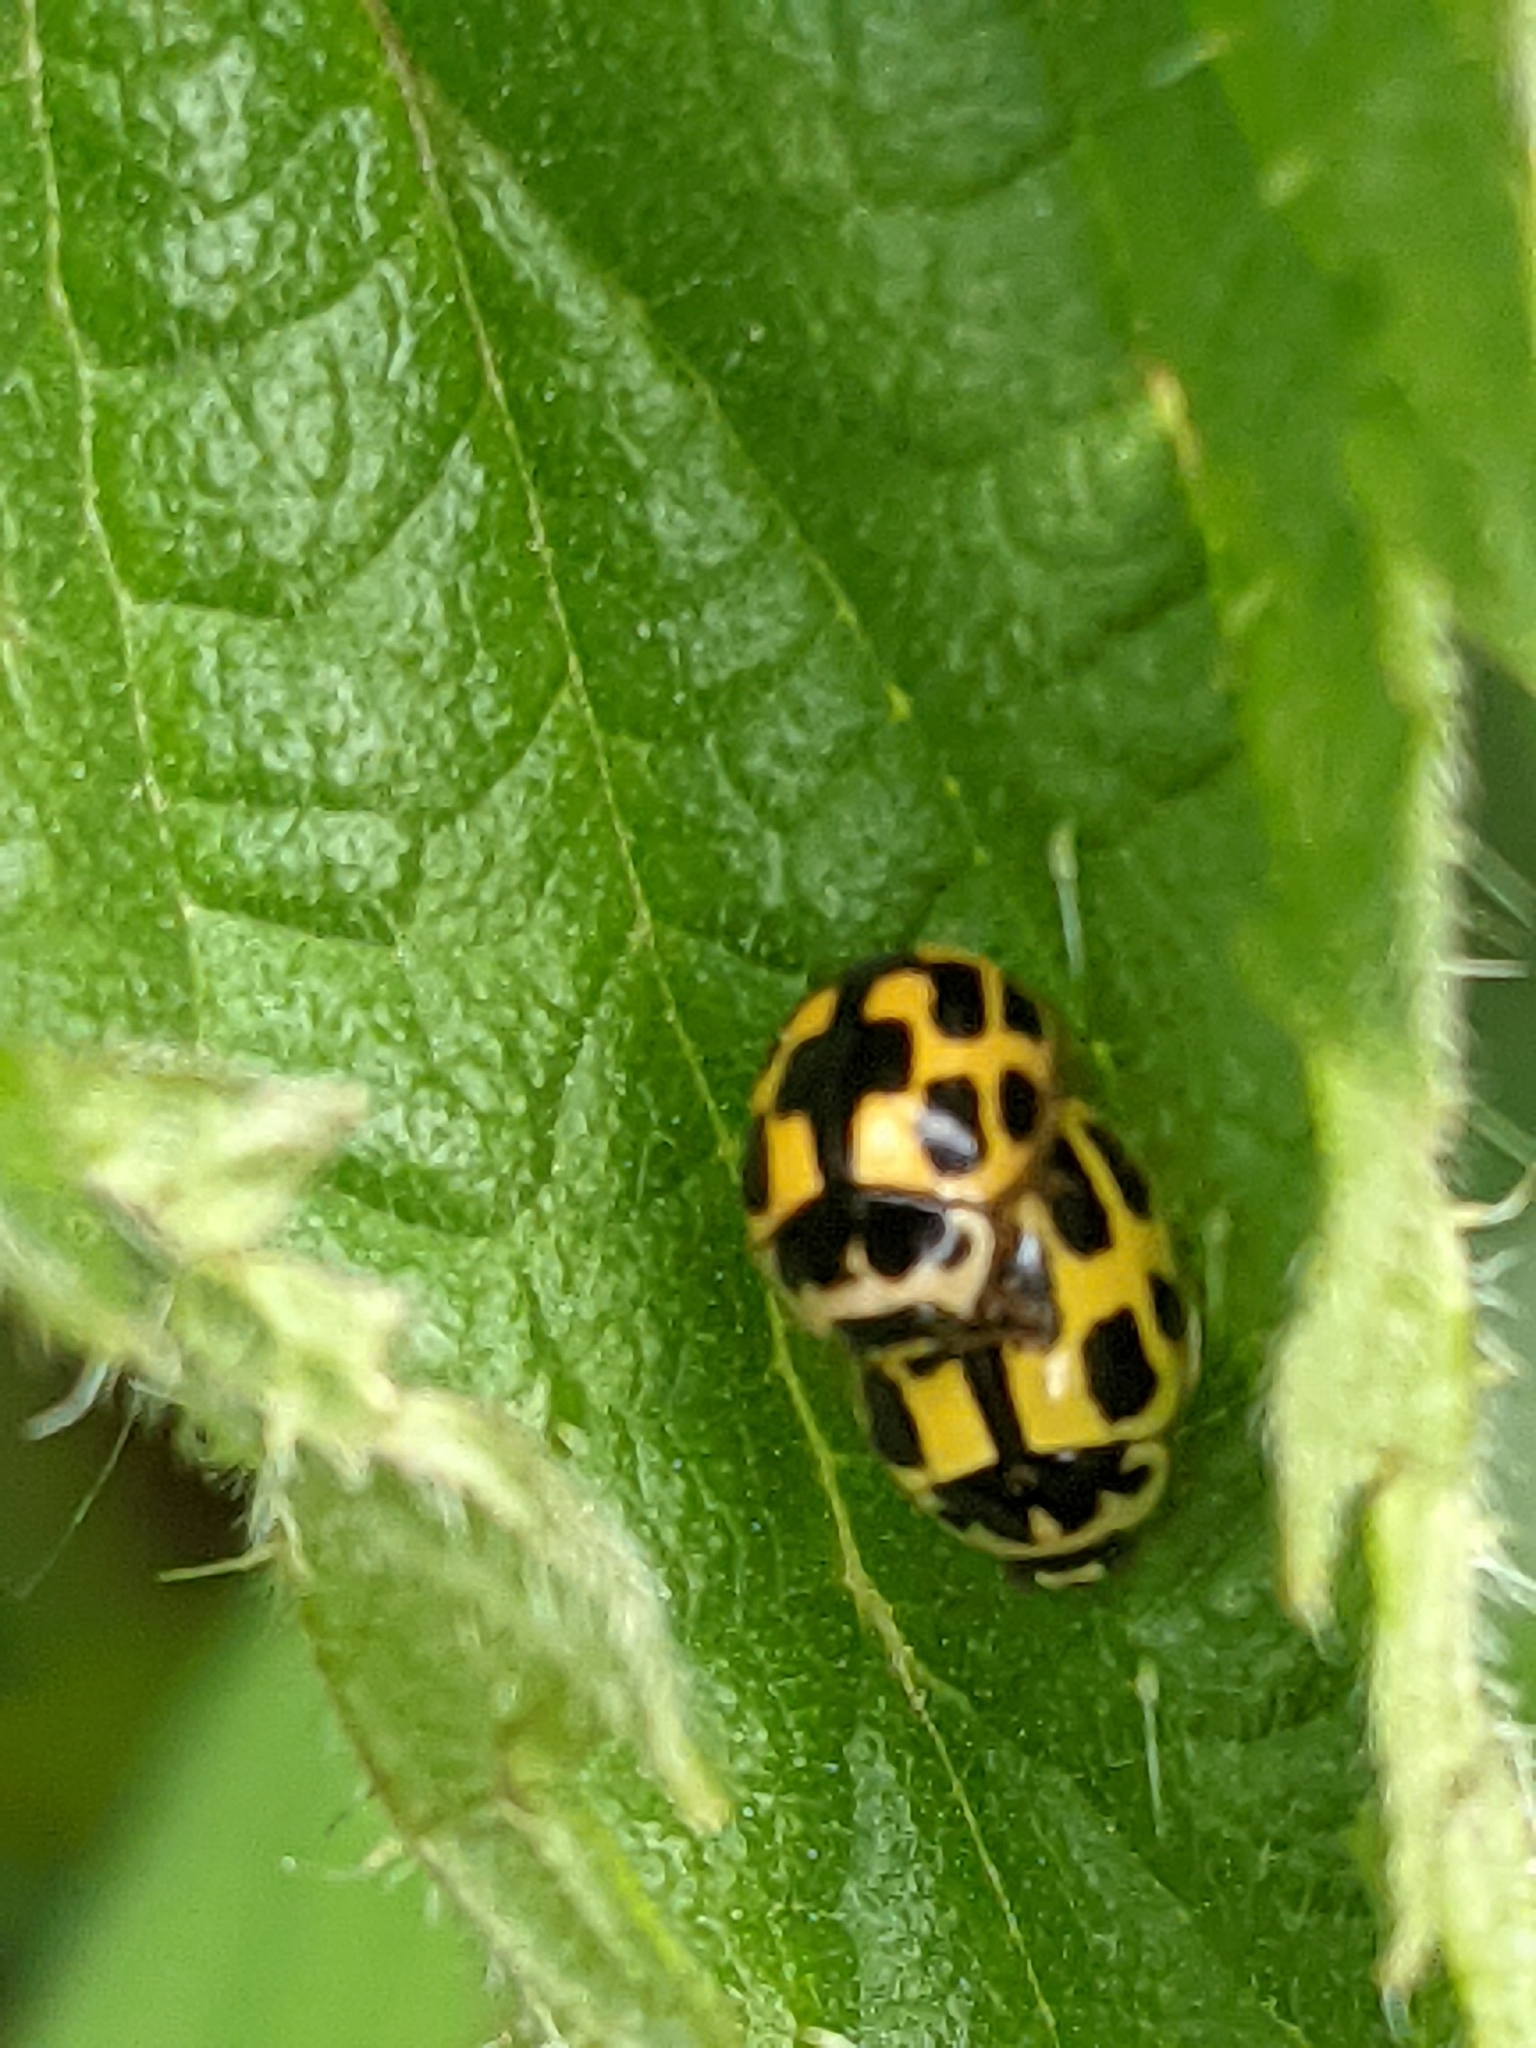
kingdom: Animalia
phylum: Arthropoda
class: Insecta
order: Coleoptera
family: Coccinellidae
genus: Propylaea
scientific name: Propylaea quatuordecimpunctata
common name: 14-spotted ladybird beetle
